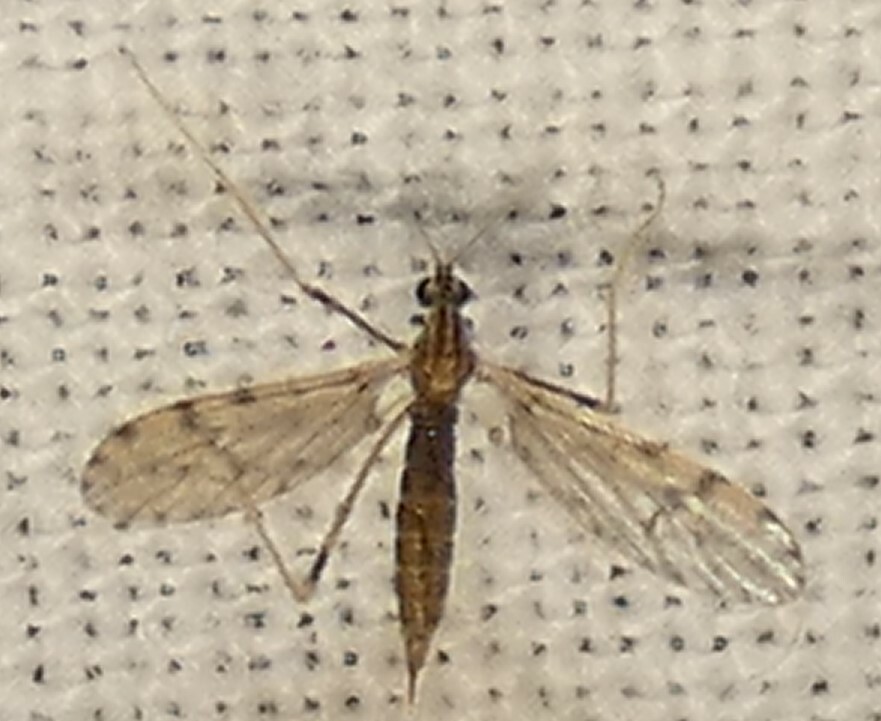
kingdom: Animalia
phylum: Arthropoda
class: Insecta
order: Diptera
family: Limoniidae
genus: Erioptera
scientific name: Erioptera parva
